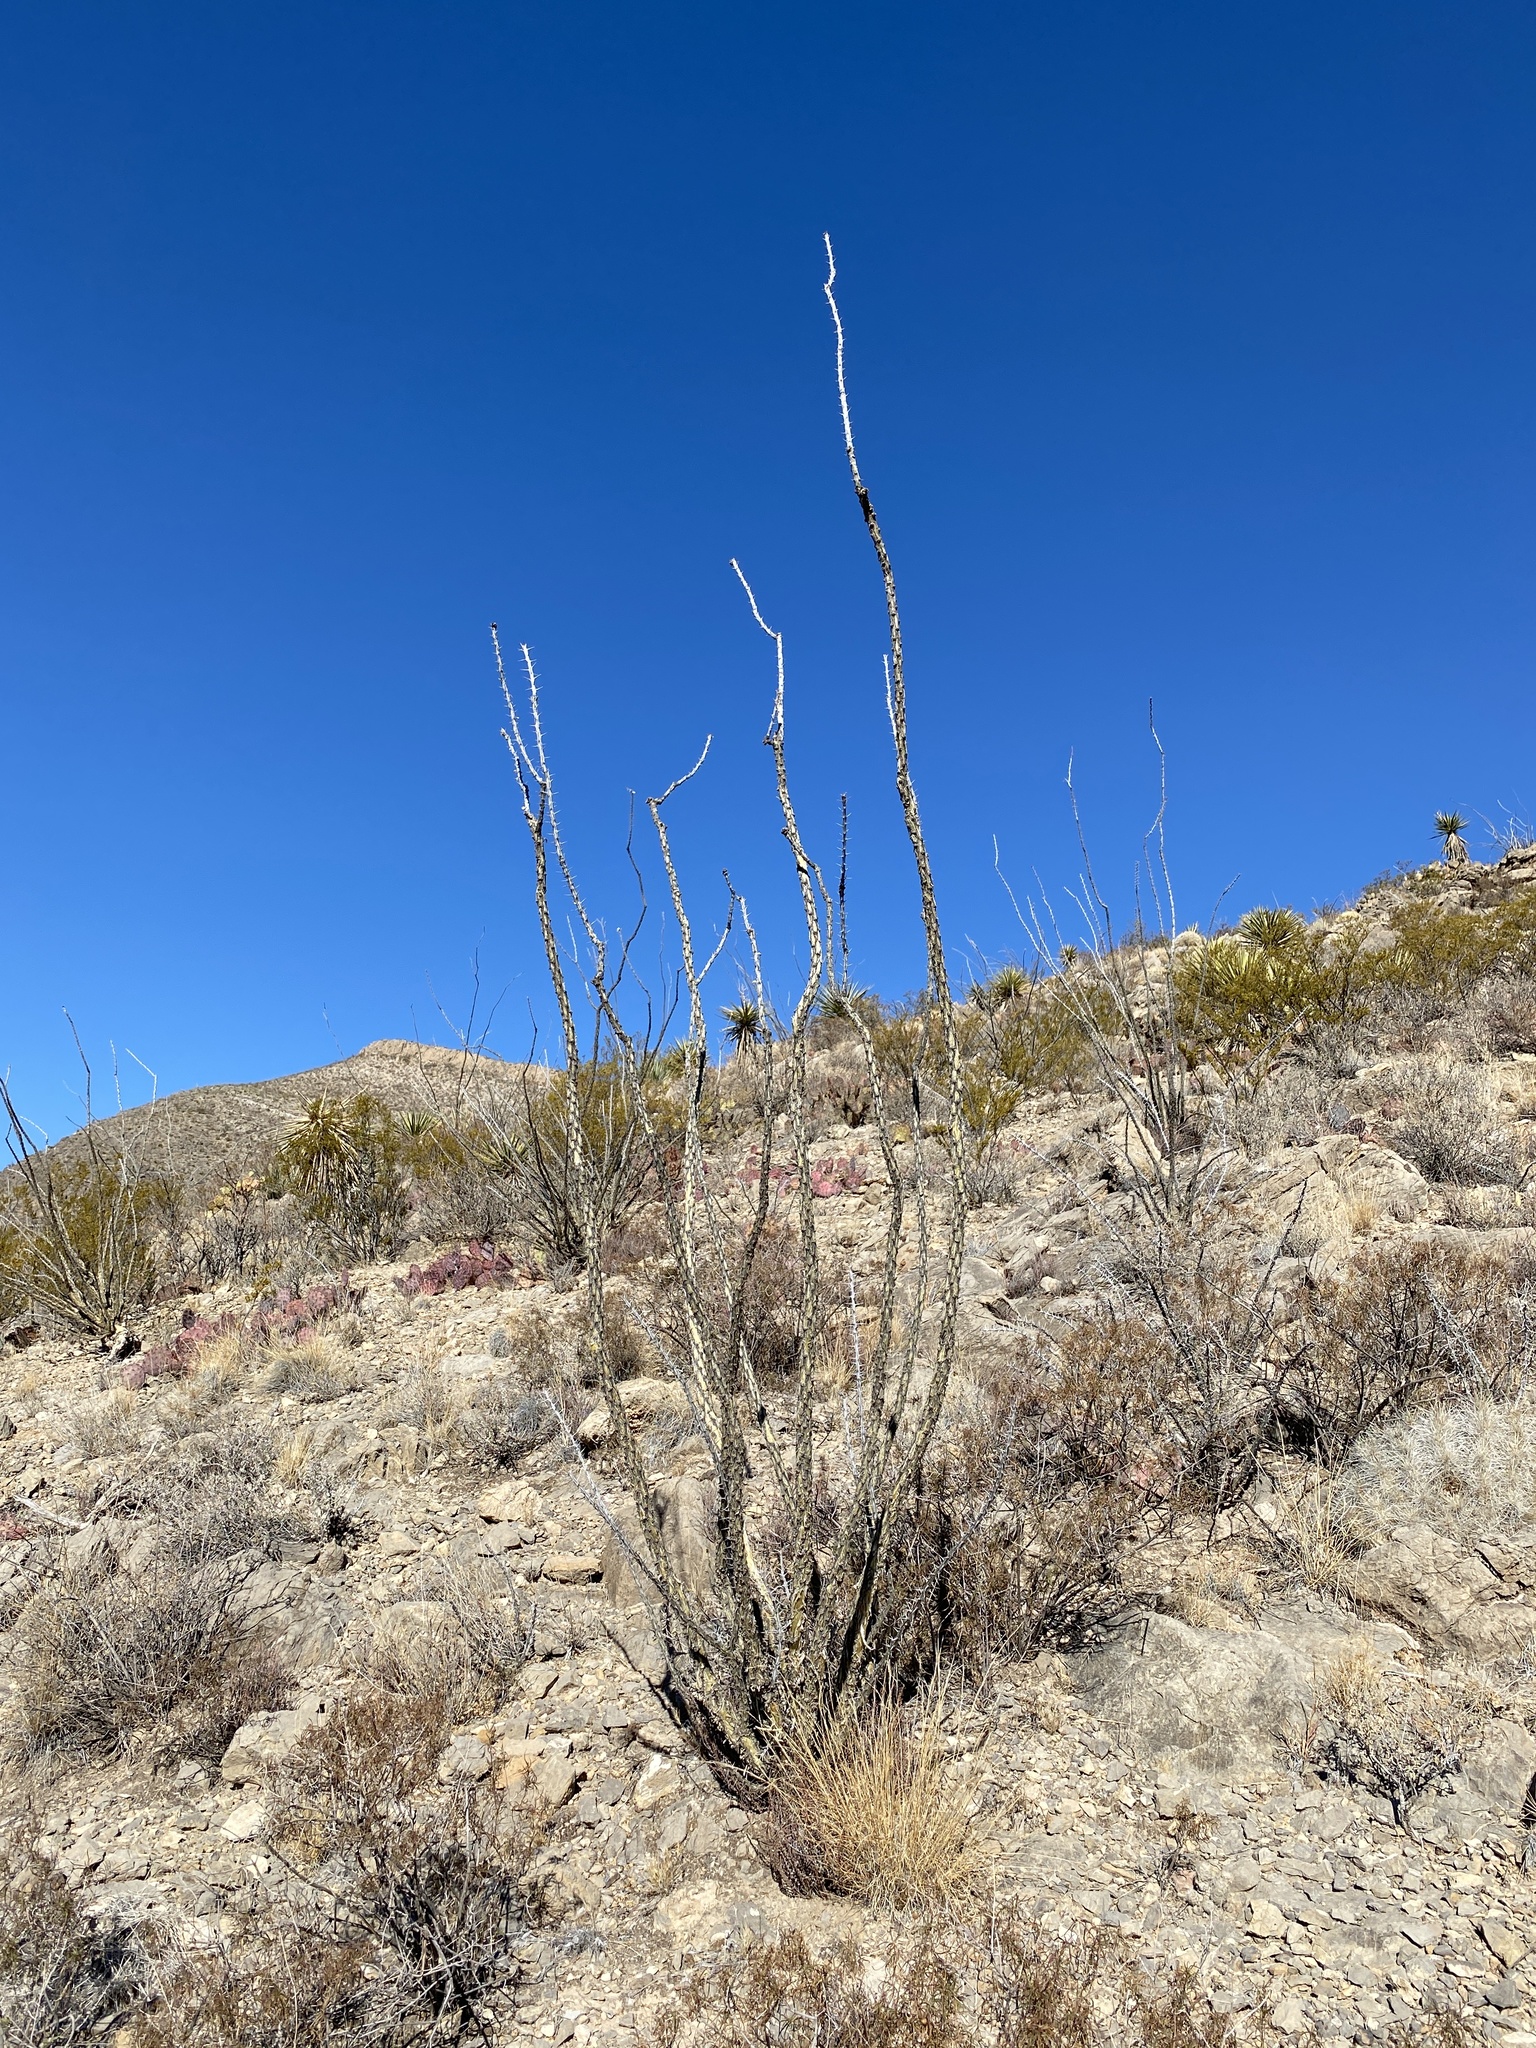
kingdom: Plantae
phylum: Tracheophyta
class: Magnoliopsida
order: Ericales
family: Fouquieriaceae
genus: Fouquieria
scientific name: Fouquieria splendens
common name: Vine-cactus
